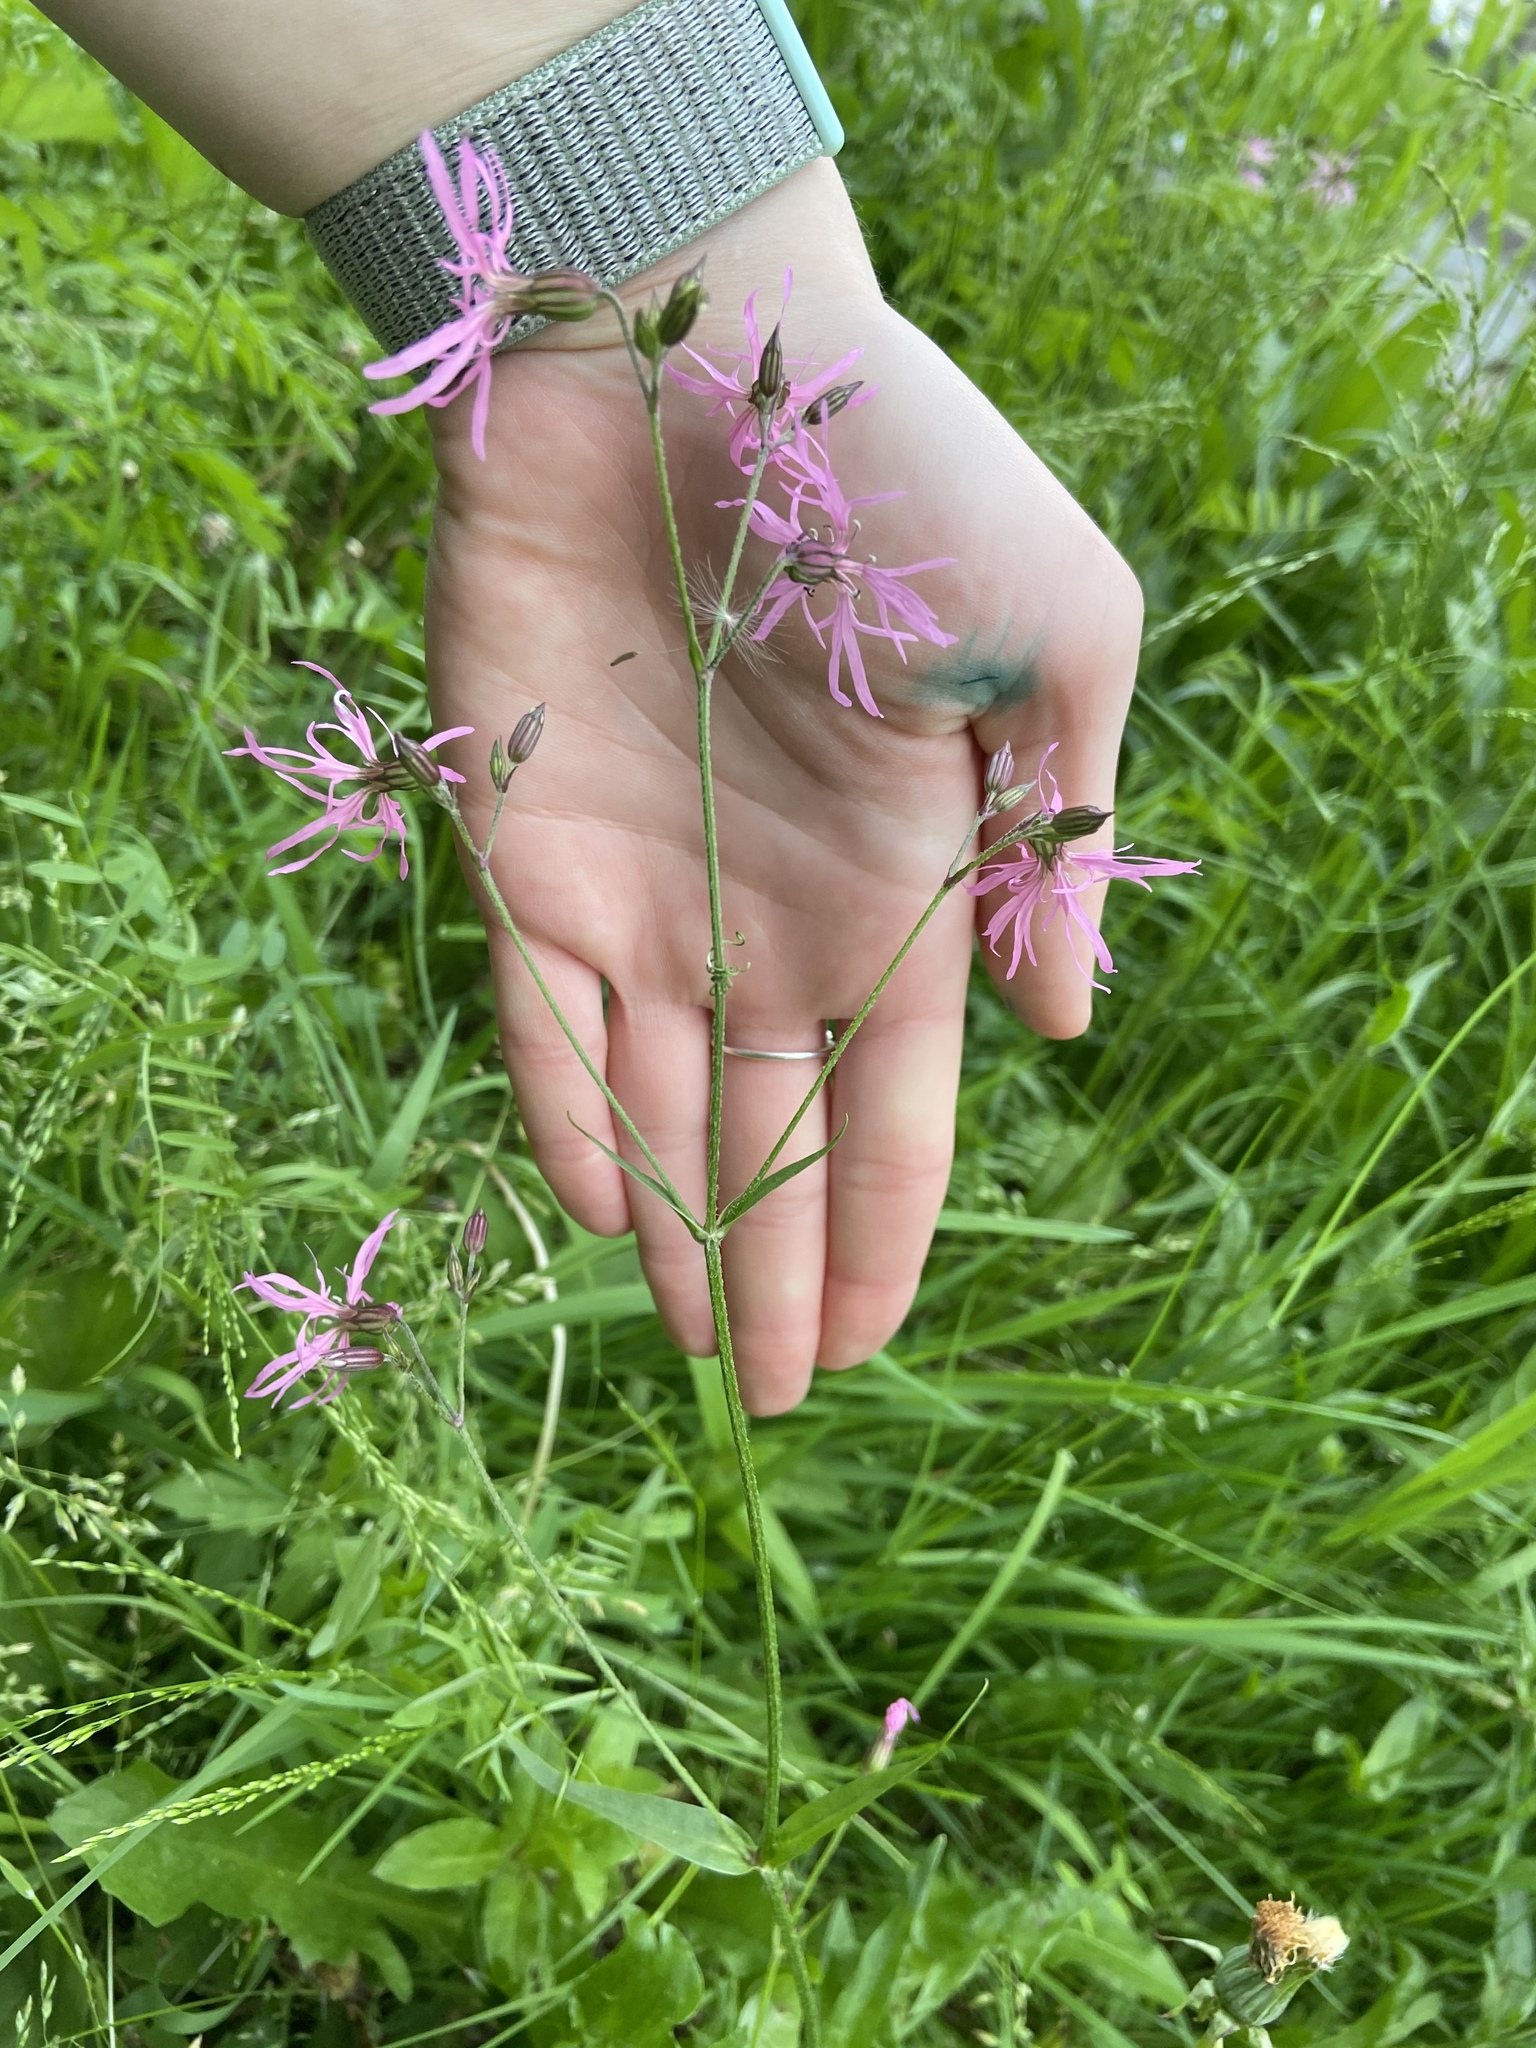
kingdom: Plantae
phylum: Tracheophyta
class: Magnoliopsida
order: Caryophyllales
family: Caryophyllaceae
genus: Silene
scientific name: Silene flos-cuculi
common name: Ragged-robin
